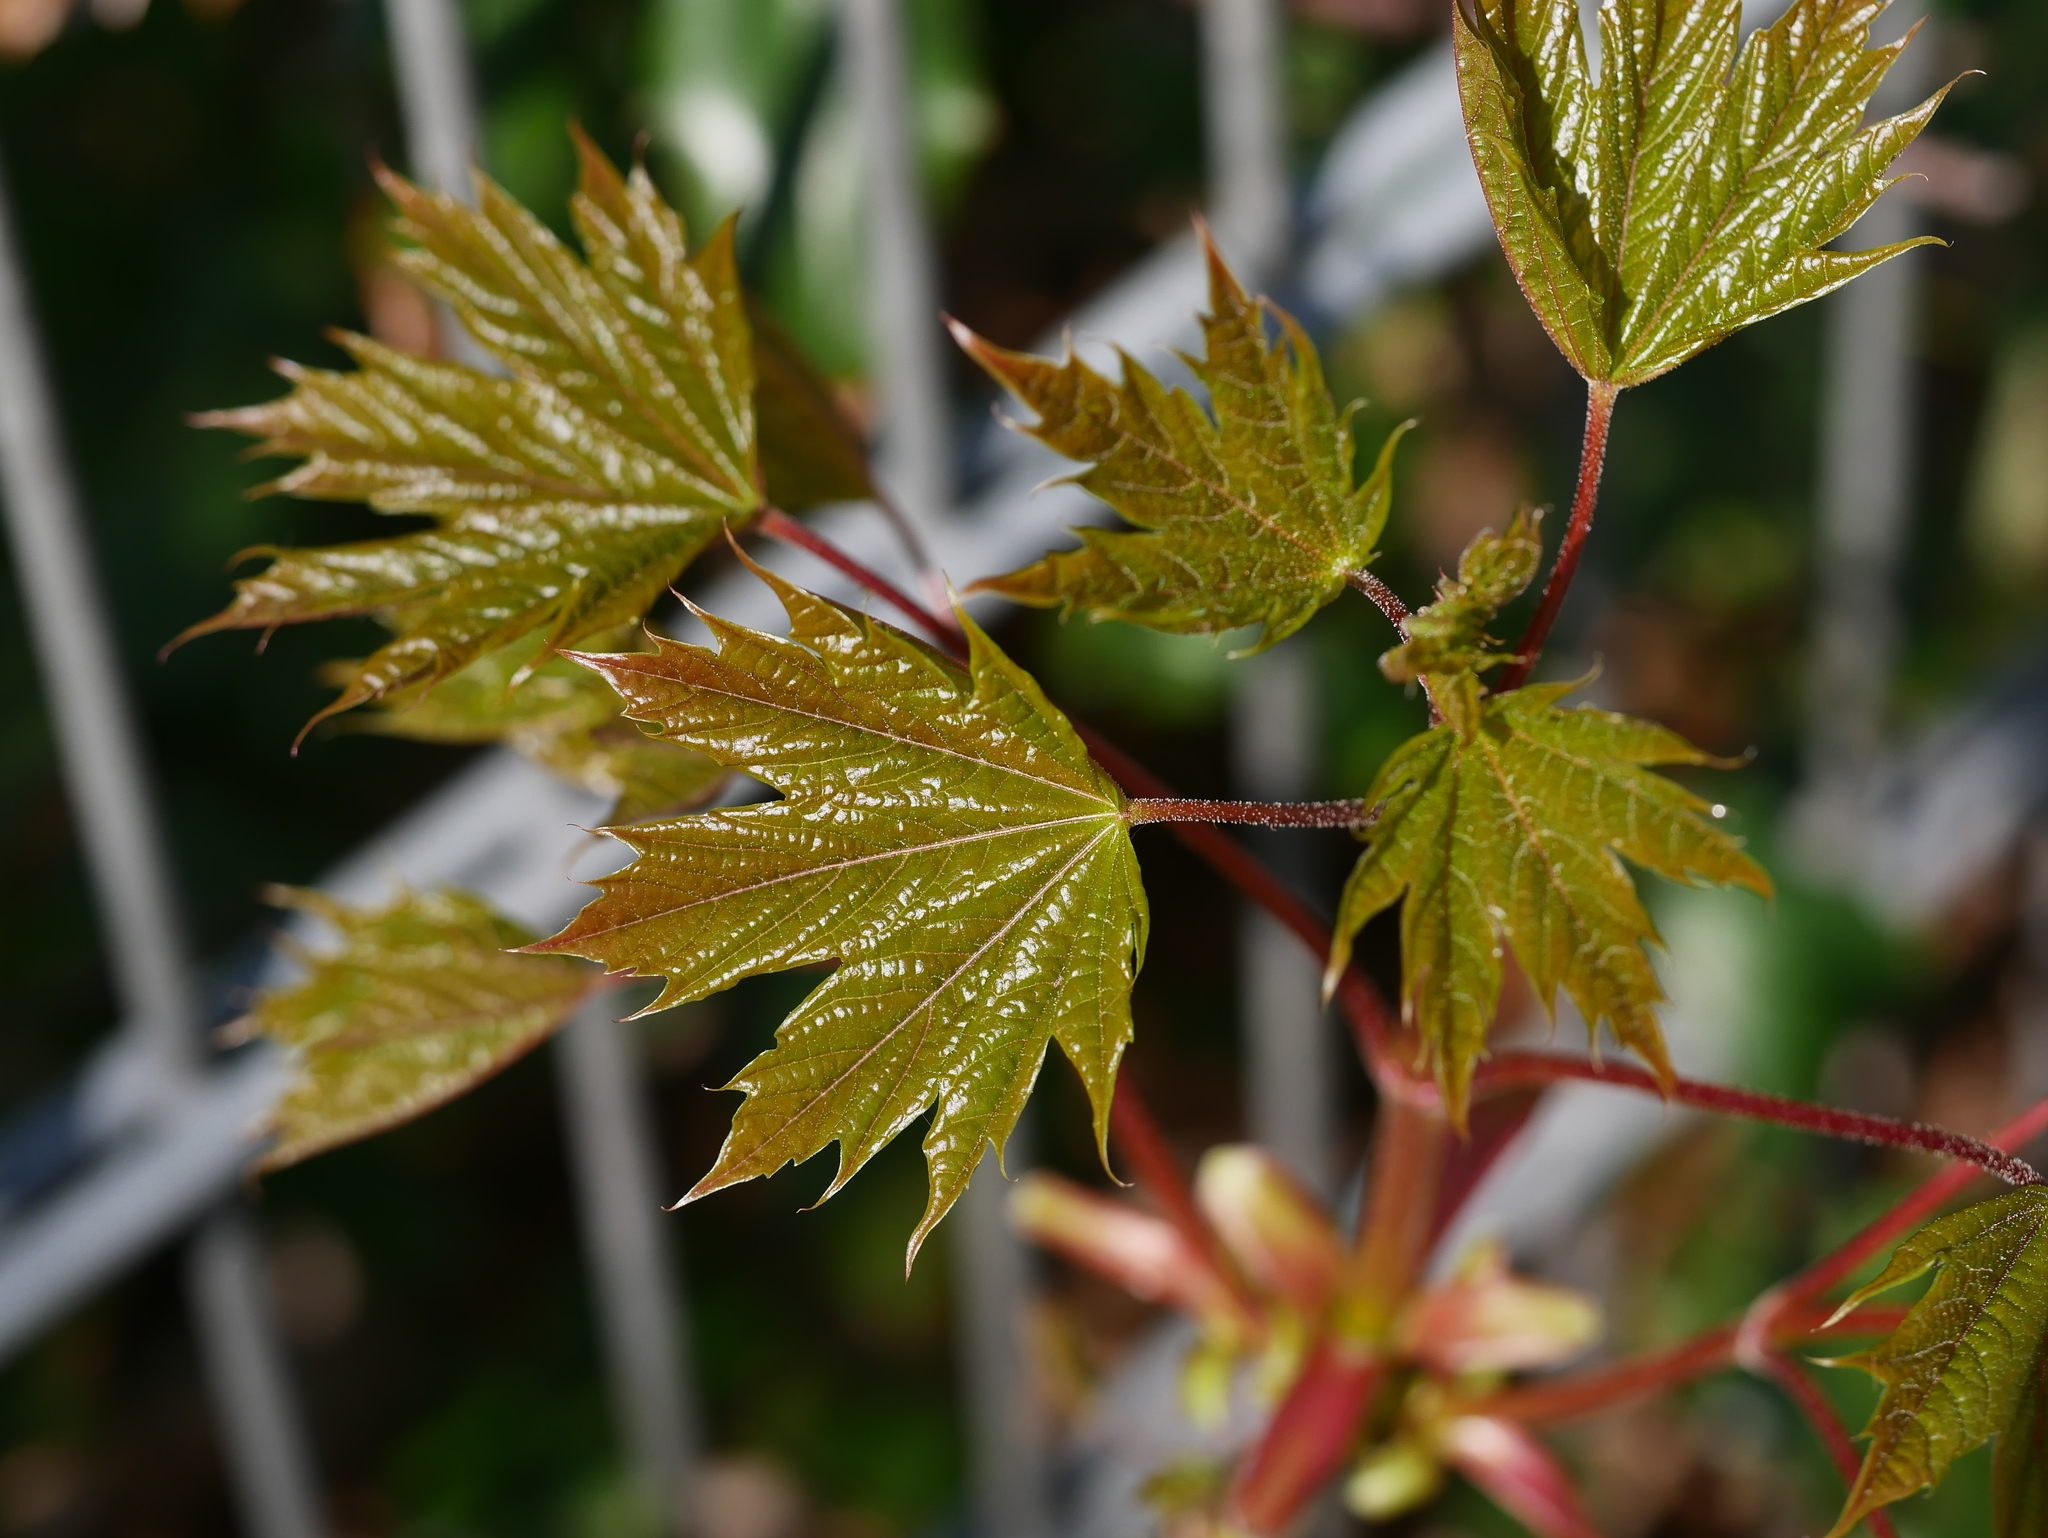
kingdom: Plantae
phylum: Tracheophyta
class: Magnoliopsida
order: Sapindales
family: Sapindaceae
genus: Acer
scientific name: Acer platanoides
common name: Norway maple
